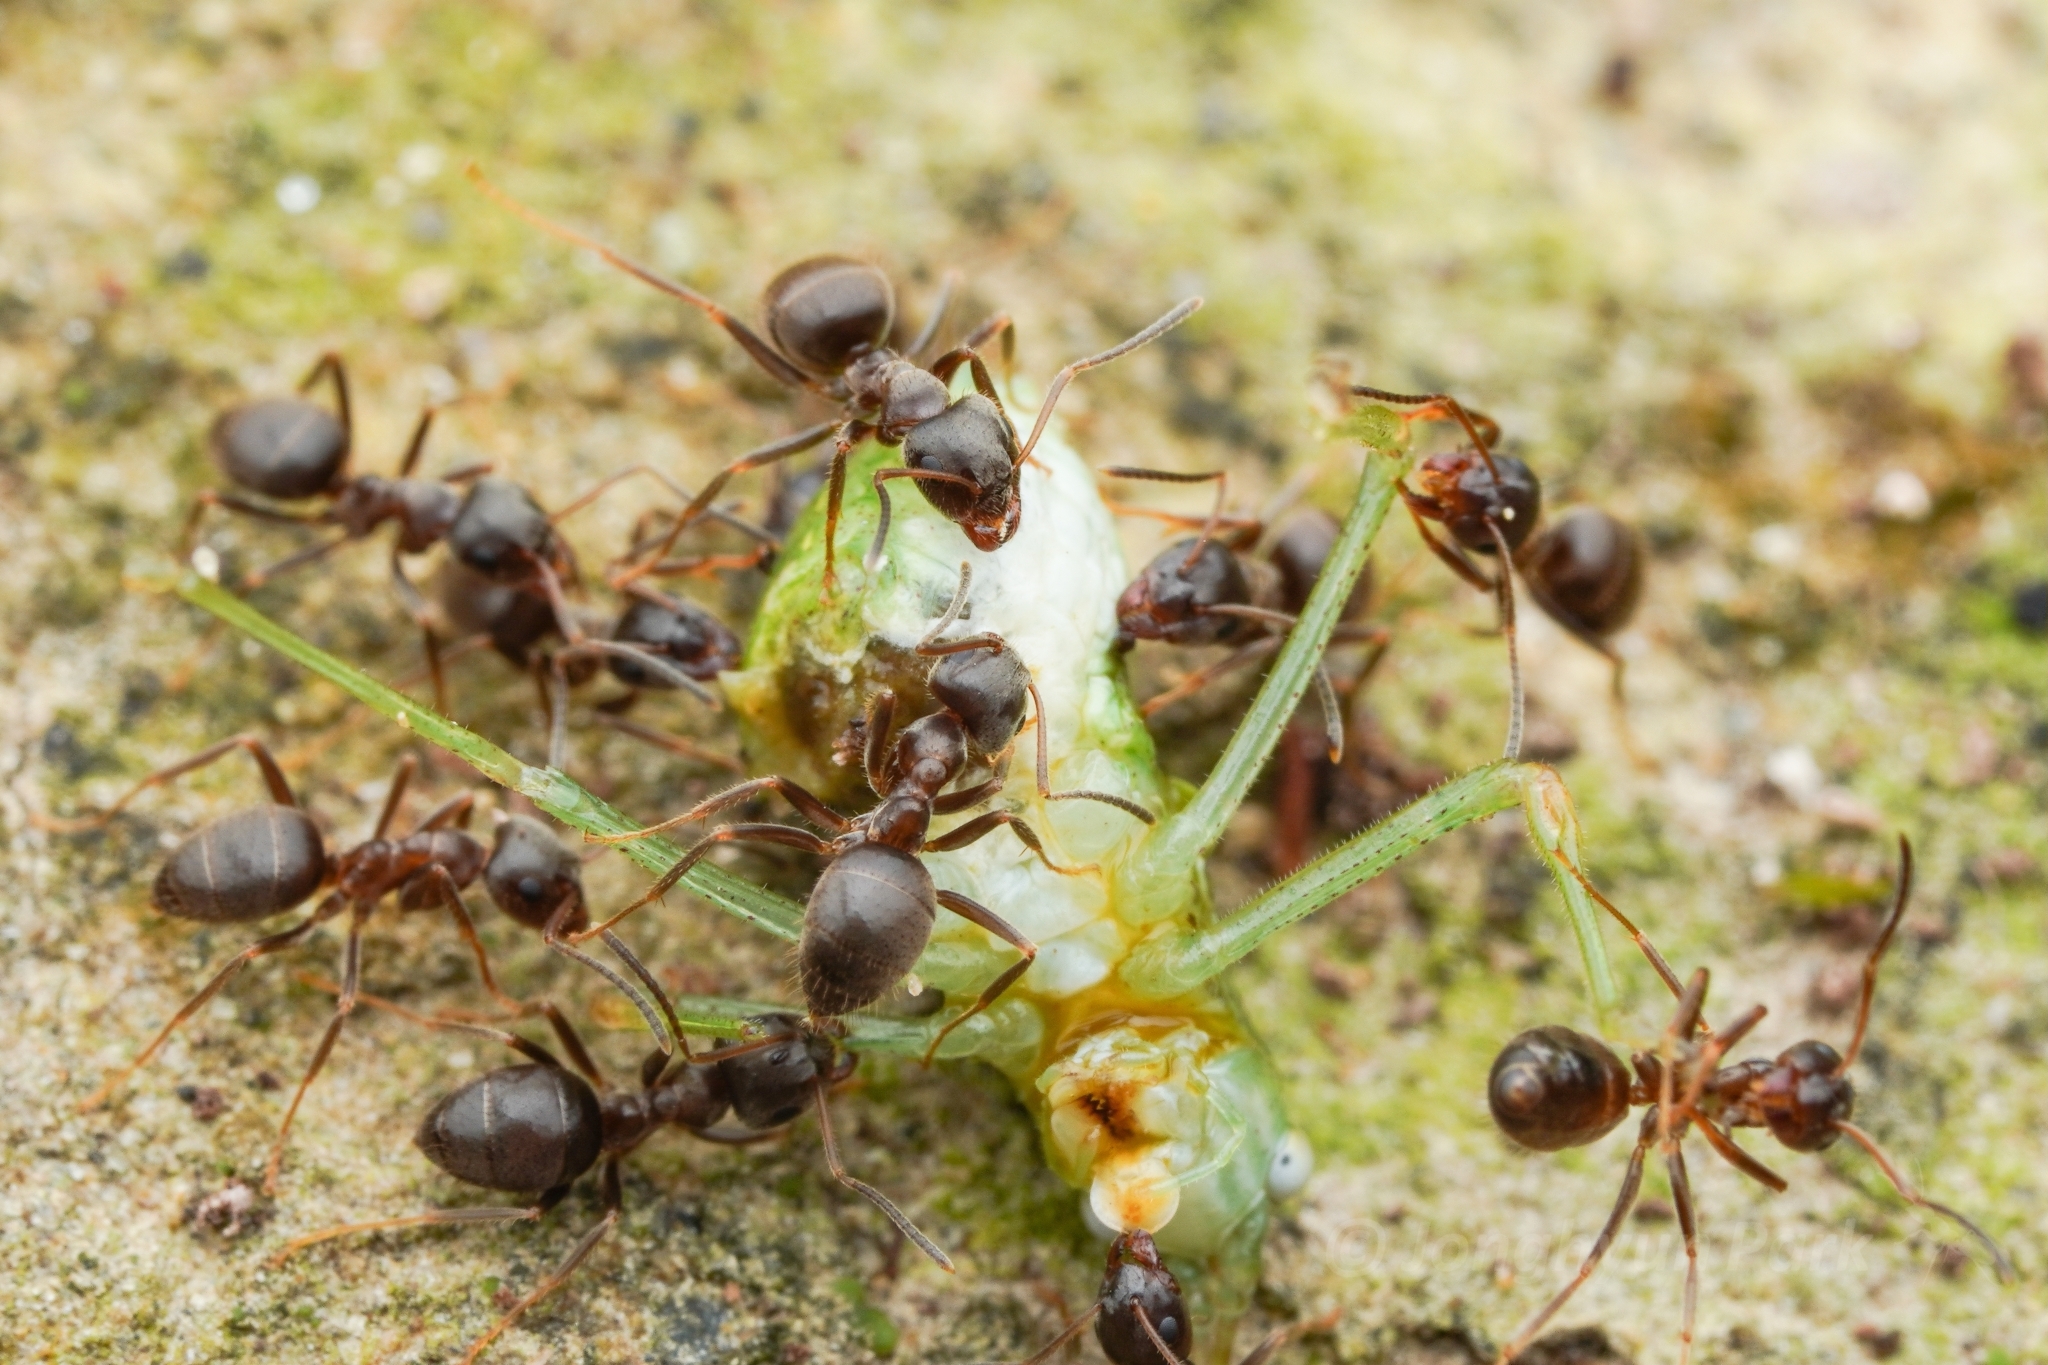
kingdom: Animalia
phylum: Arthropoda
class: Insecta
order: Hymenoptera
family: Formicidae
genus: Lasius
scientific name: Lasius japonicus
